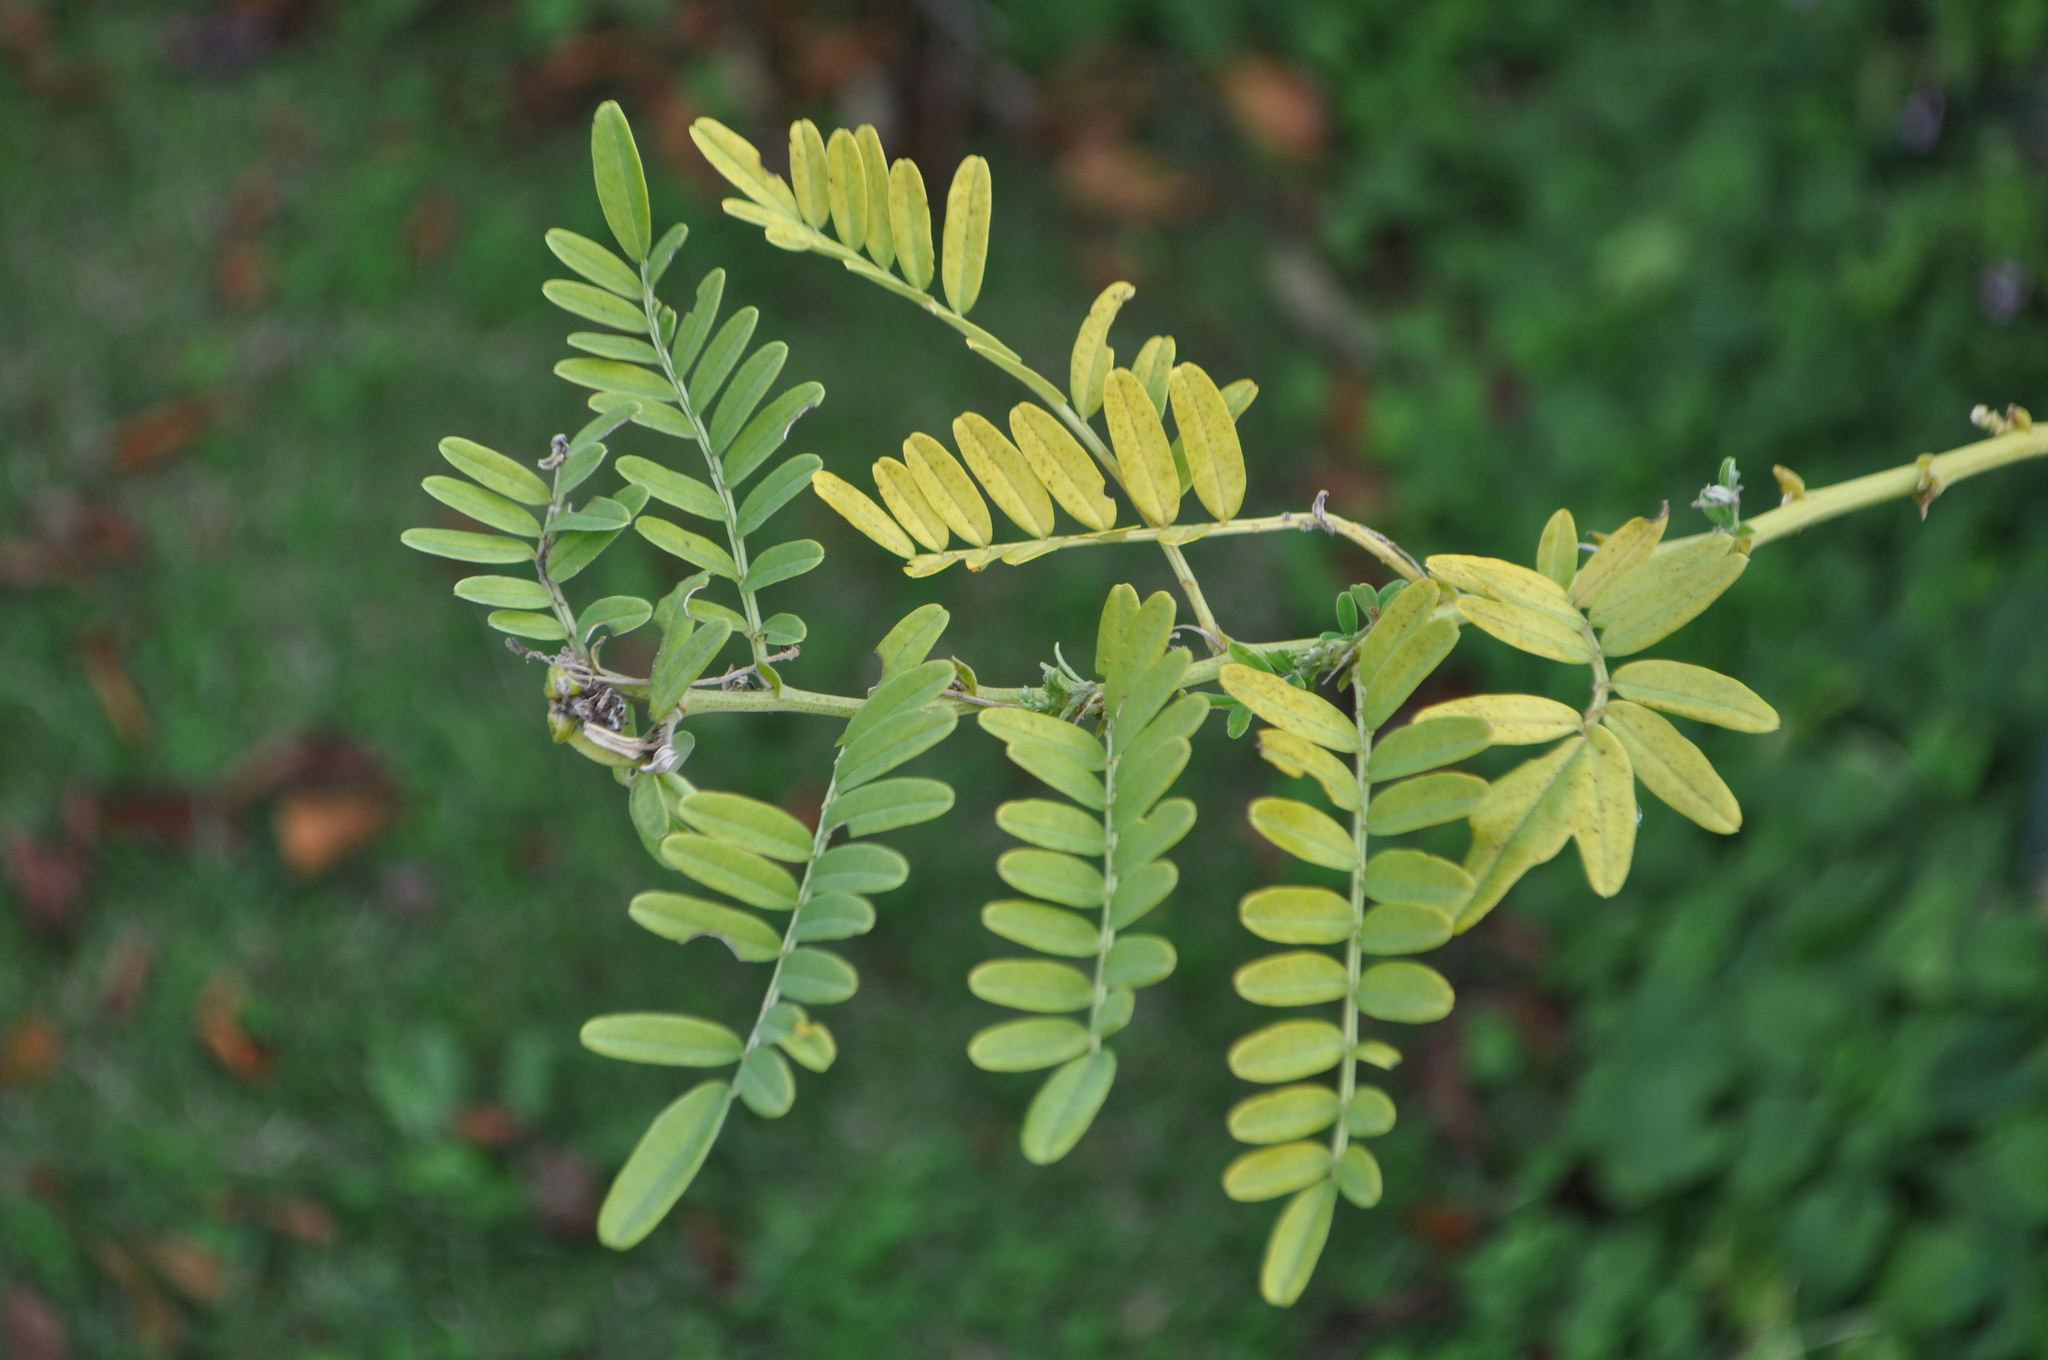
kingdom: Plantae
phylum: Tracheophyta
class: Magnoliopsida
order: Fabales
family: Fabaceae
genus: Clianthus
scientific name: Clianthus puniceus
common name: Kaka-beak
